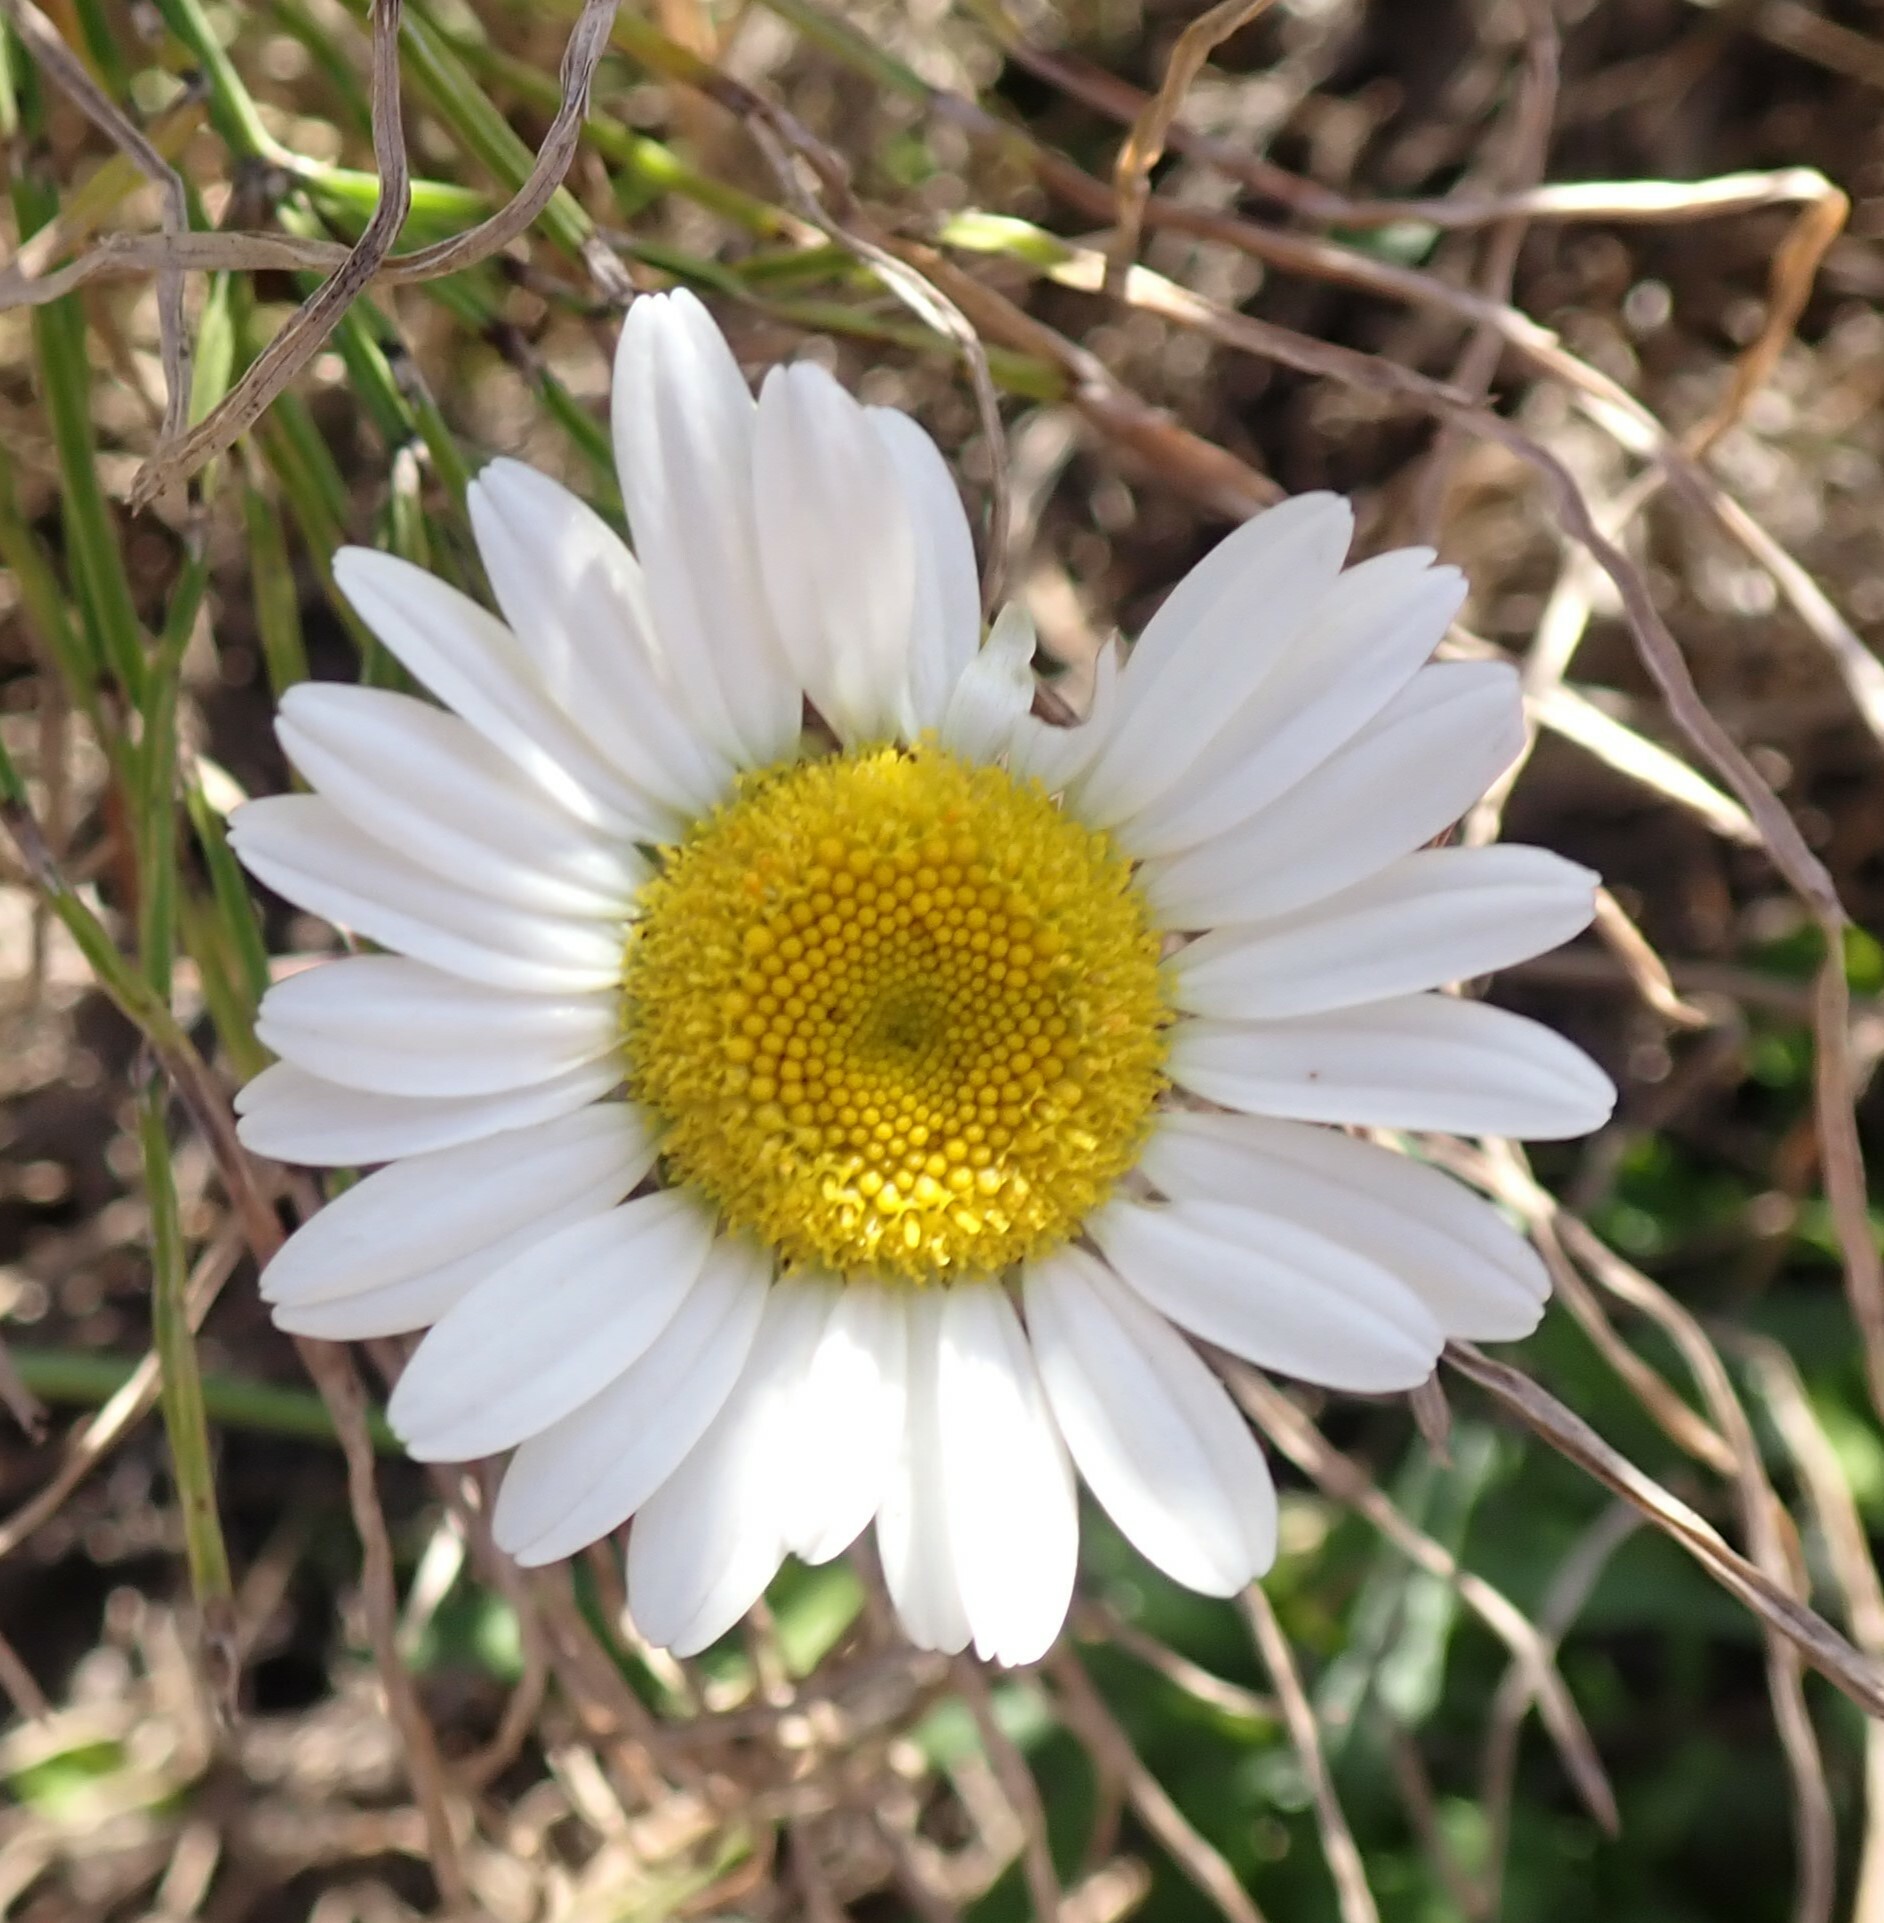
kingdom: Plantae
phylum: Tracheophyta
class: Magnoliopsida
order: Asterales
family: Asteraceae
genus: Leucanthemum
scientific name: Leucanthemum vulgare
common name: Oxeye daisy
